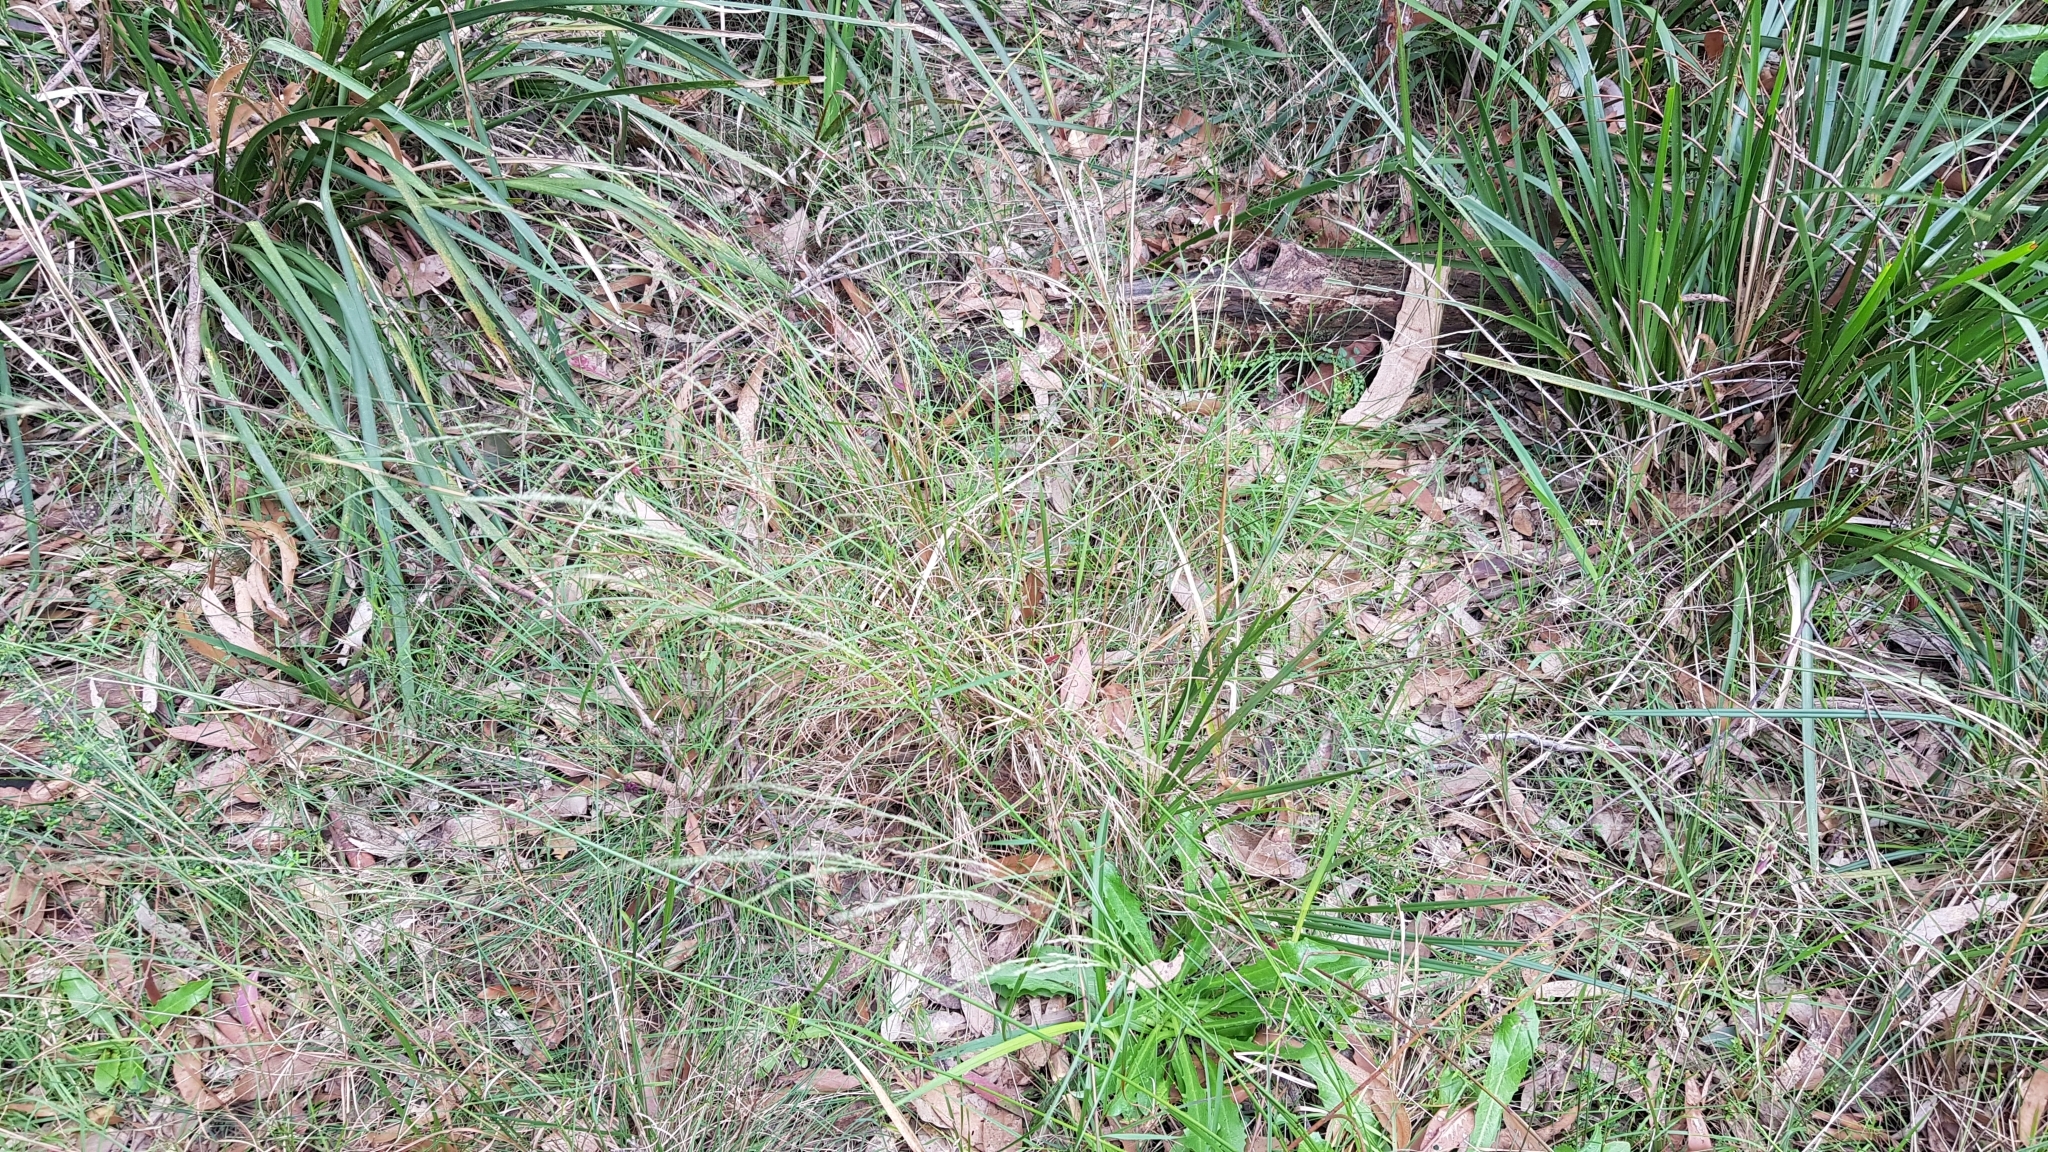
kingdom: Plantae
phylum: Tracheophyta
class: Liliopsida
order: Asparagales
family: Orchidaceae
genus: Calochilus
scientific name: Calochilus paludosus
